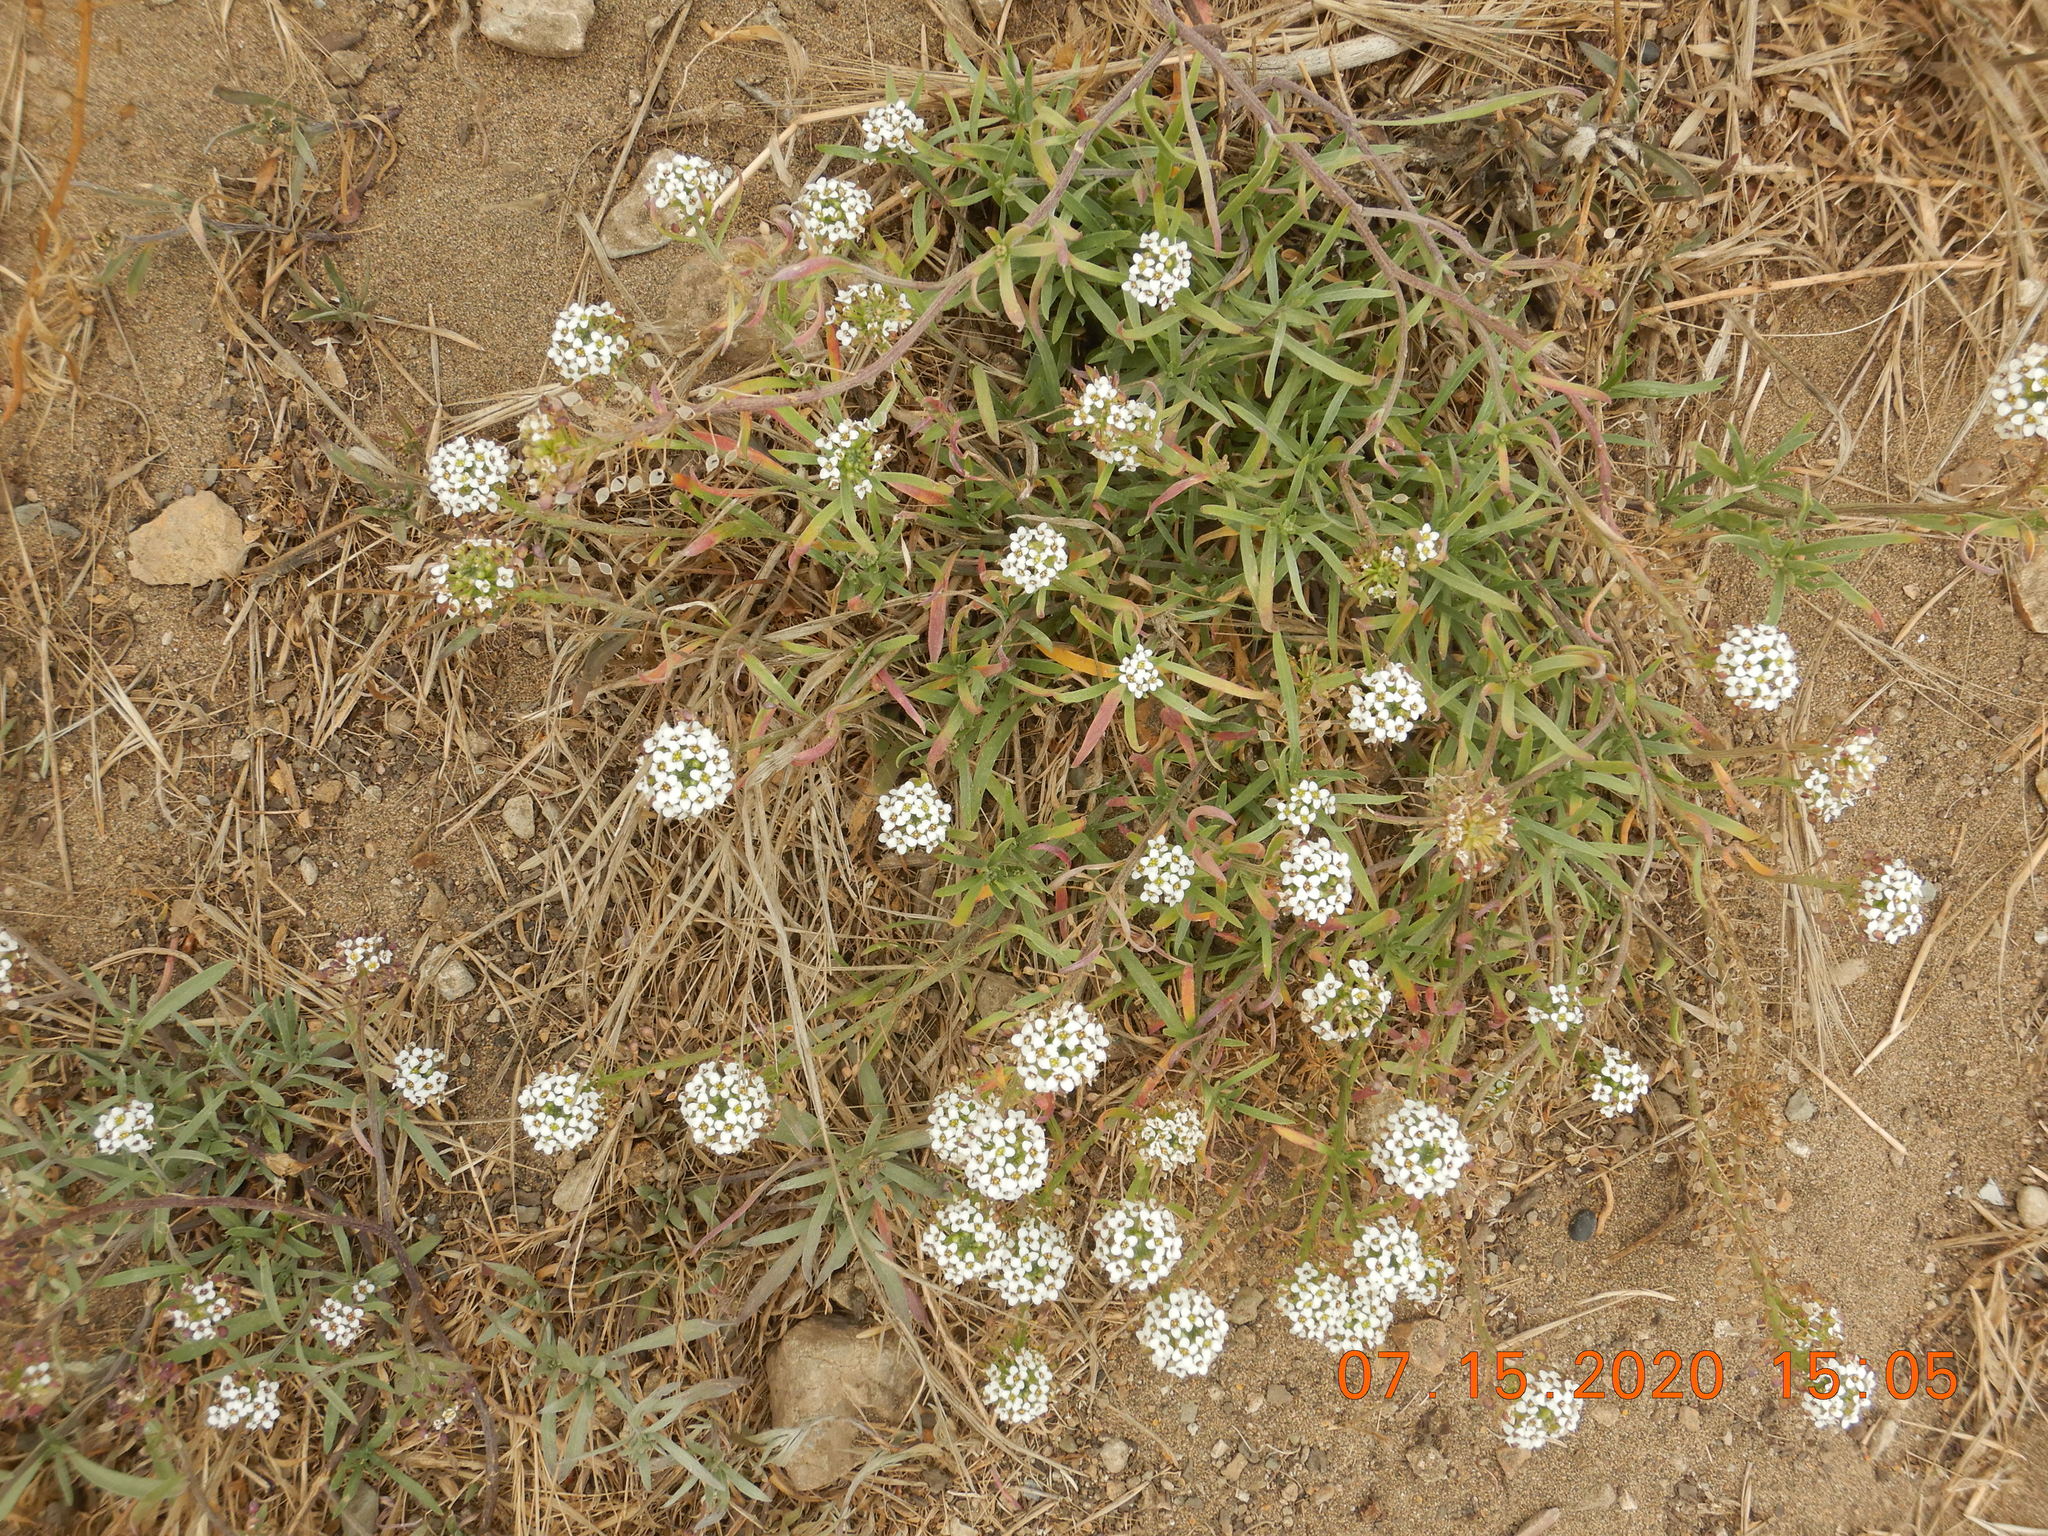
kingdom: Plantae
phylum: Tracheophyta
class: Magnoliopsida
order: Brassicales
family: Brassicaceae
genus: Lobularia
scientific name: Lobularia maritima
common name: Sweet alison
